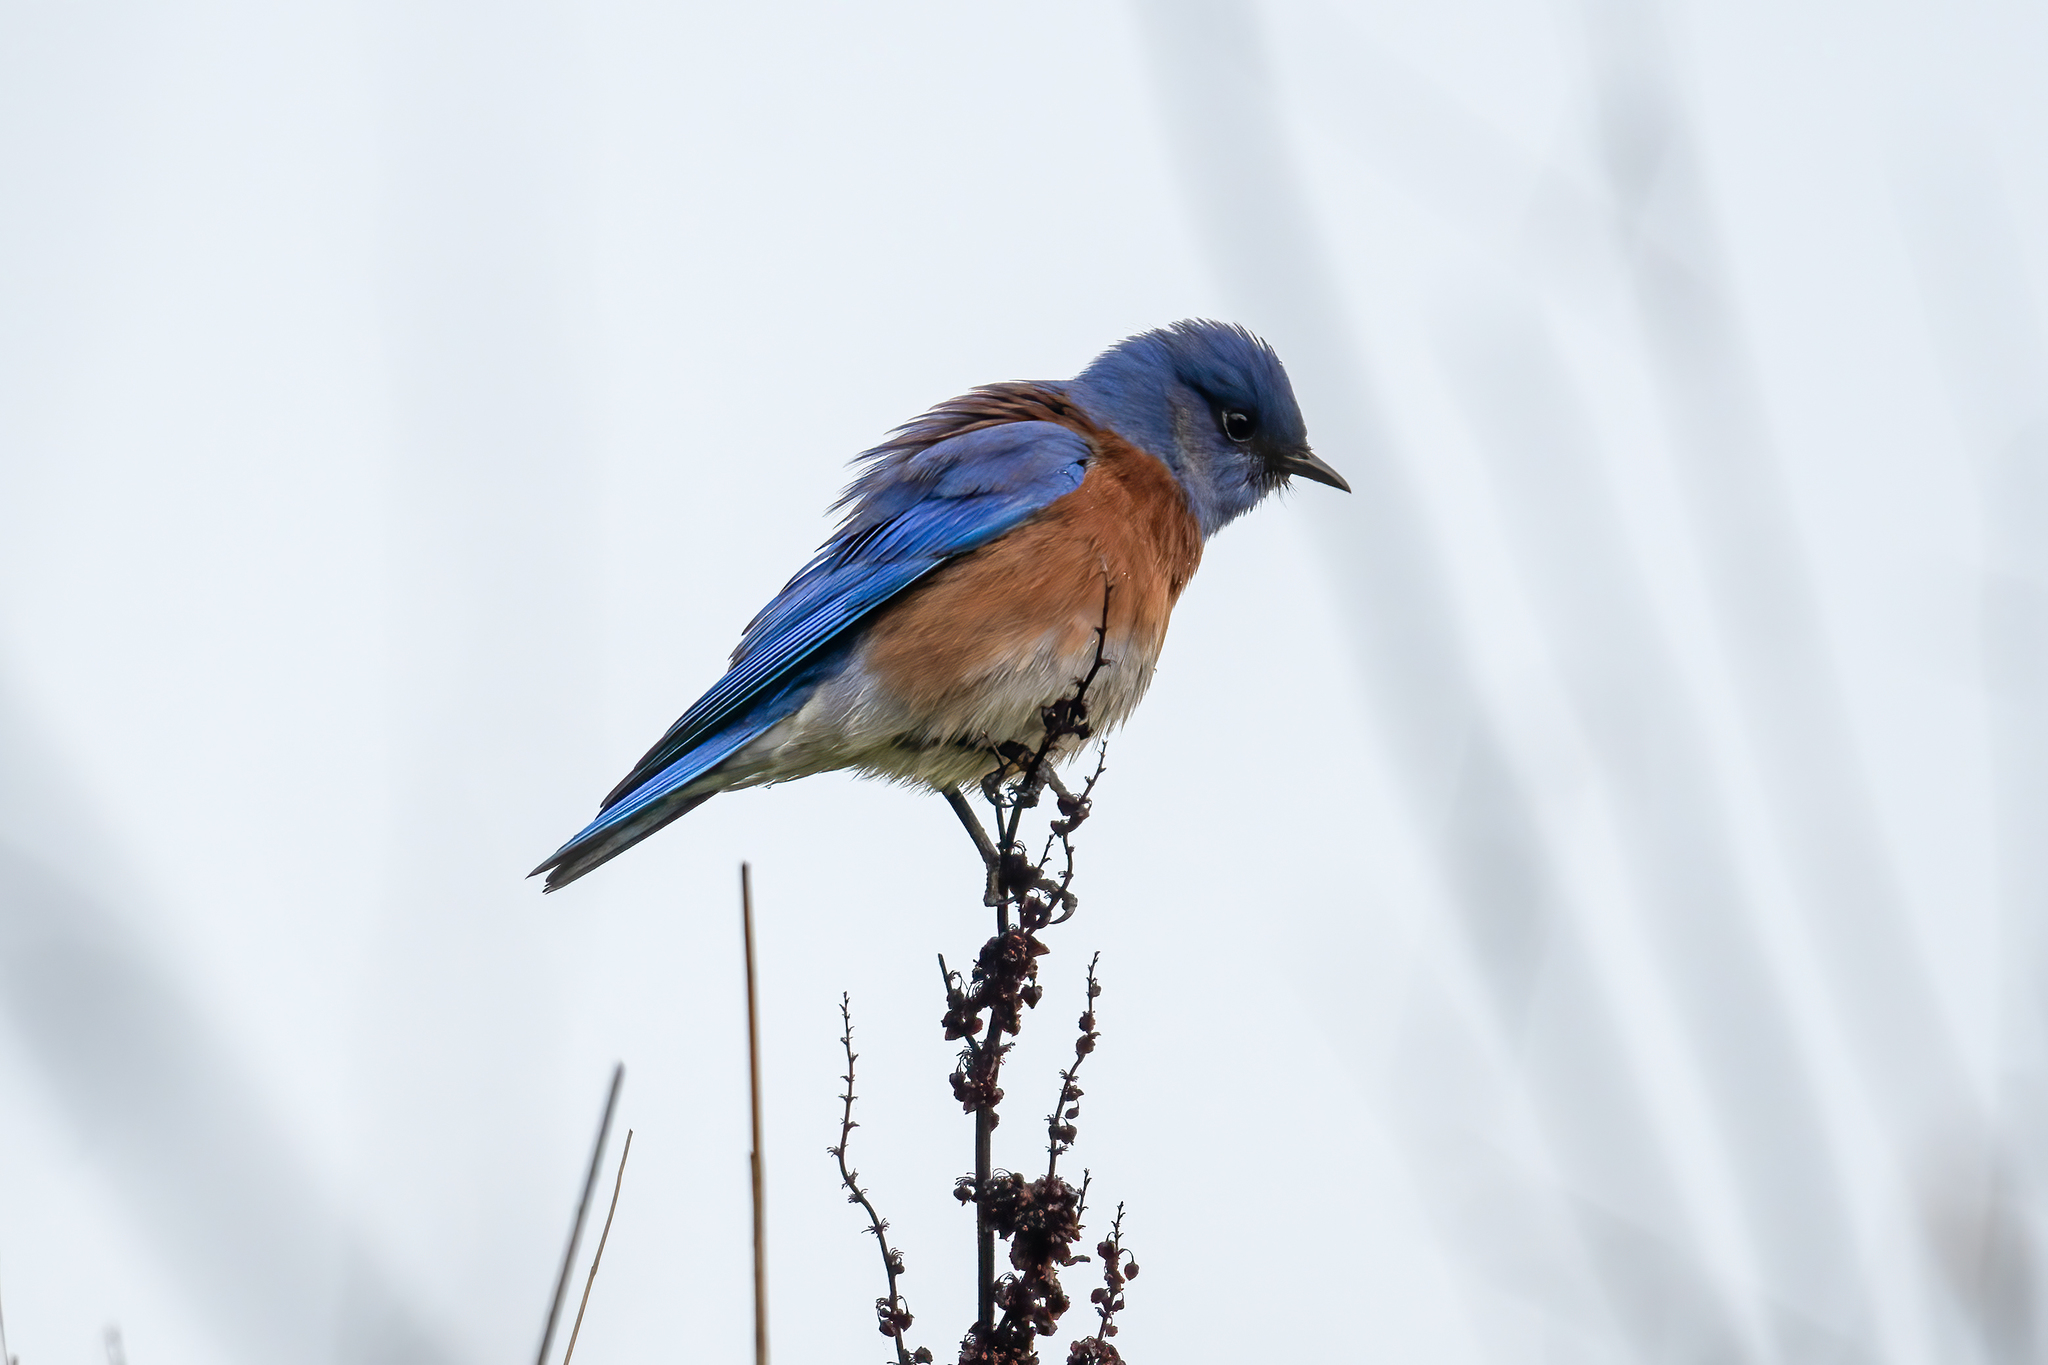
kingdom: Animalia
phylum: Chordata
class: Aves
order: Passeriformes
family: Turdidae
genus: Sialia
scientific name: Sialia mexicana
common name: Western bluebird
